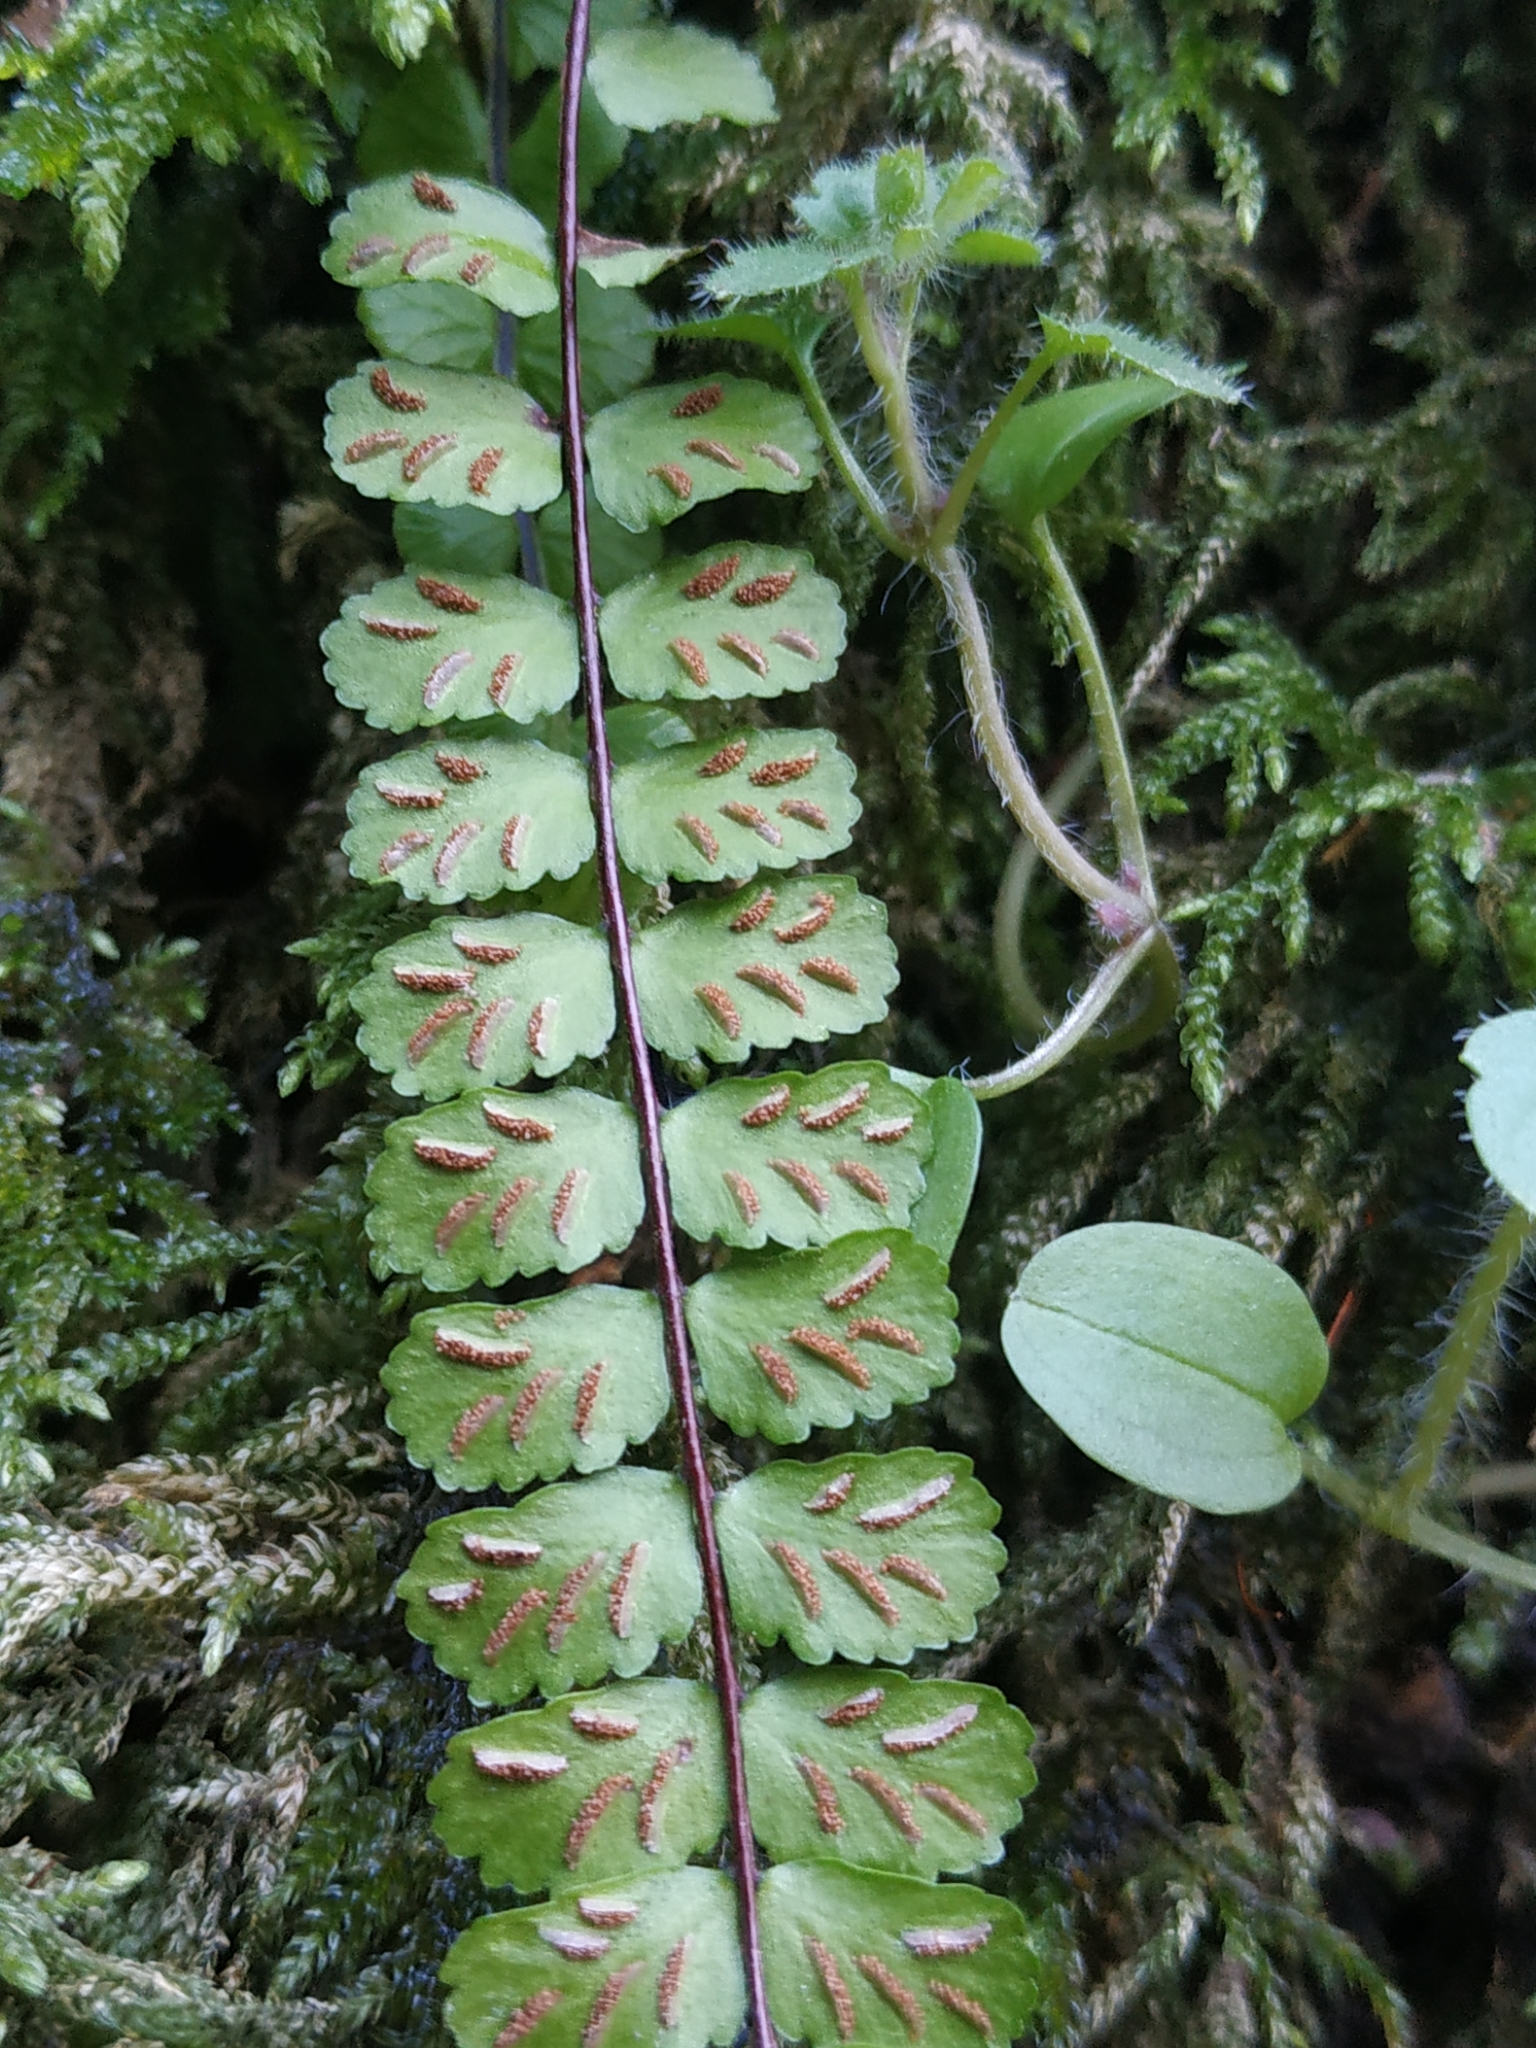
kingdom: Plantae
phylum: Tracheophyta
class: Polypodiopsida
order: Polypodiales
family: Aspleniaceae
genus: Asplenium
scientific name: Asplenium trichomanes
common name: Maidenhair spleenwort
